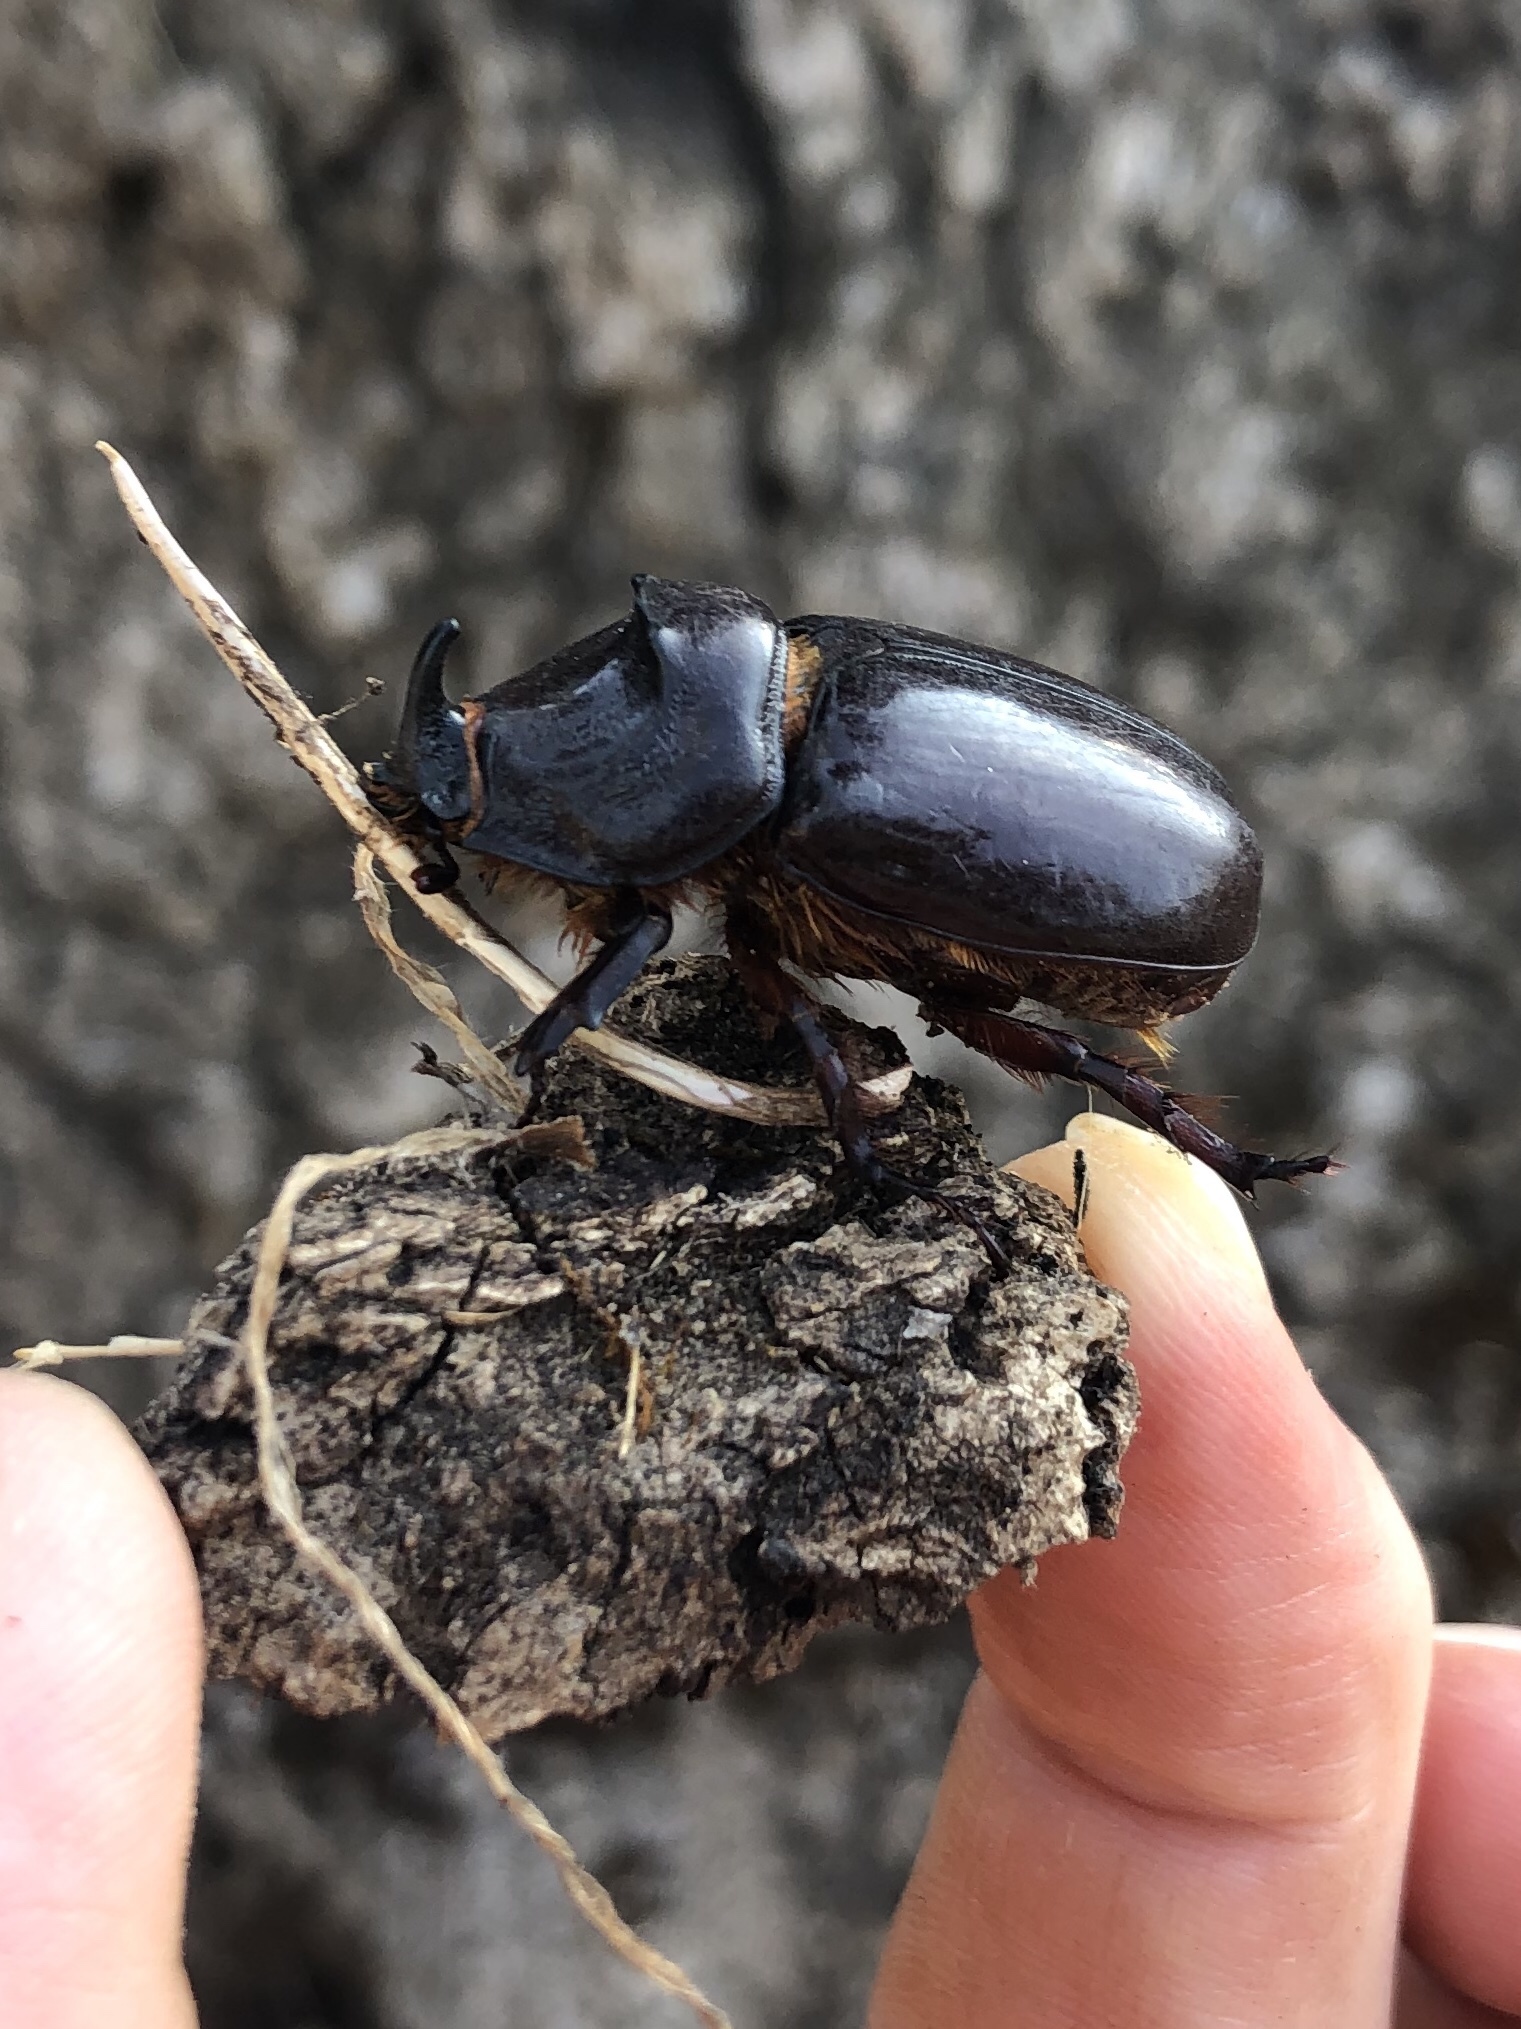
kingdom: Animalia
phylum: Arthropoda
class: Insecta
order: Coleoptera
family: Scarabaeidae
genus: Oryctes
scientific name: Oryctes nasicornis
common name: European rhinoceros beetle
